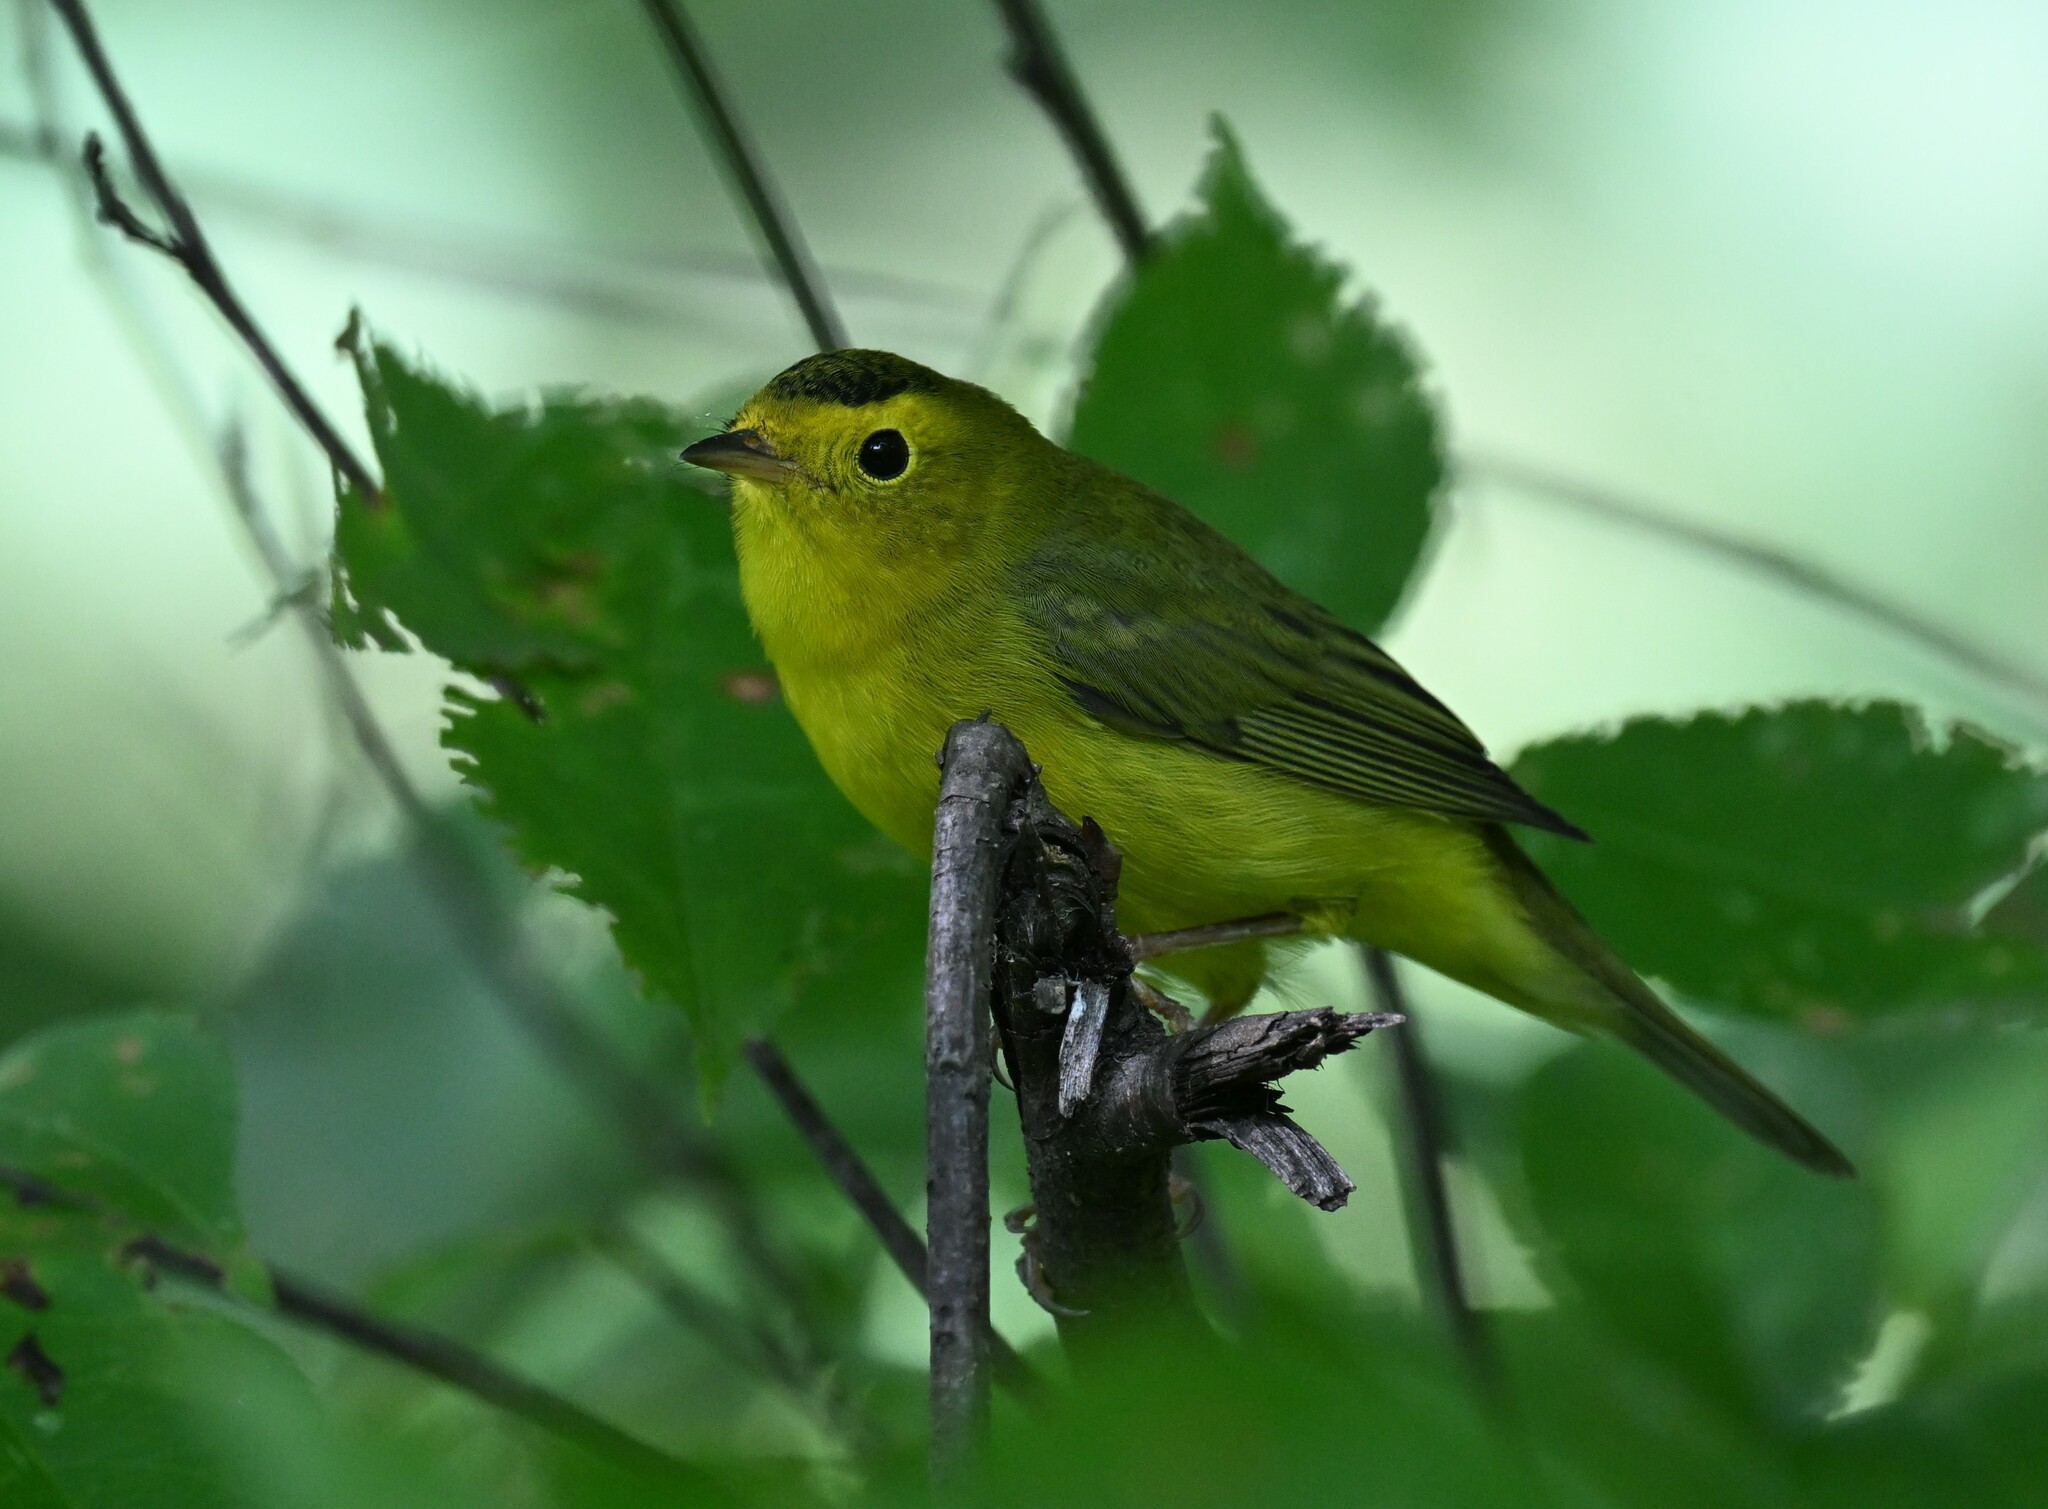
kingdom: Animalia
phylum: Chordata
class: Aves
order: Passeriformes
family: Parulidae
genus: Cardellina
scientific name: Cardellina pusilla
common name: Wilson's warbler
